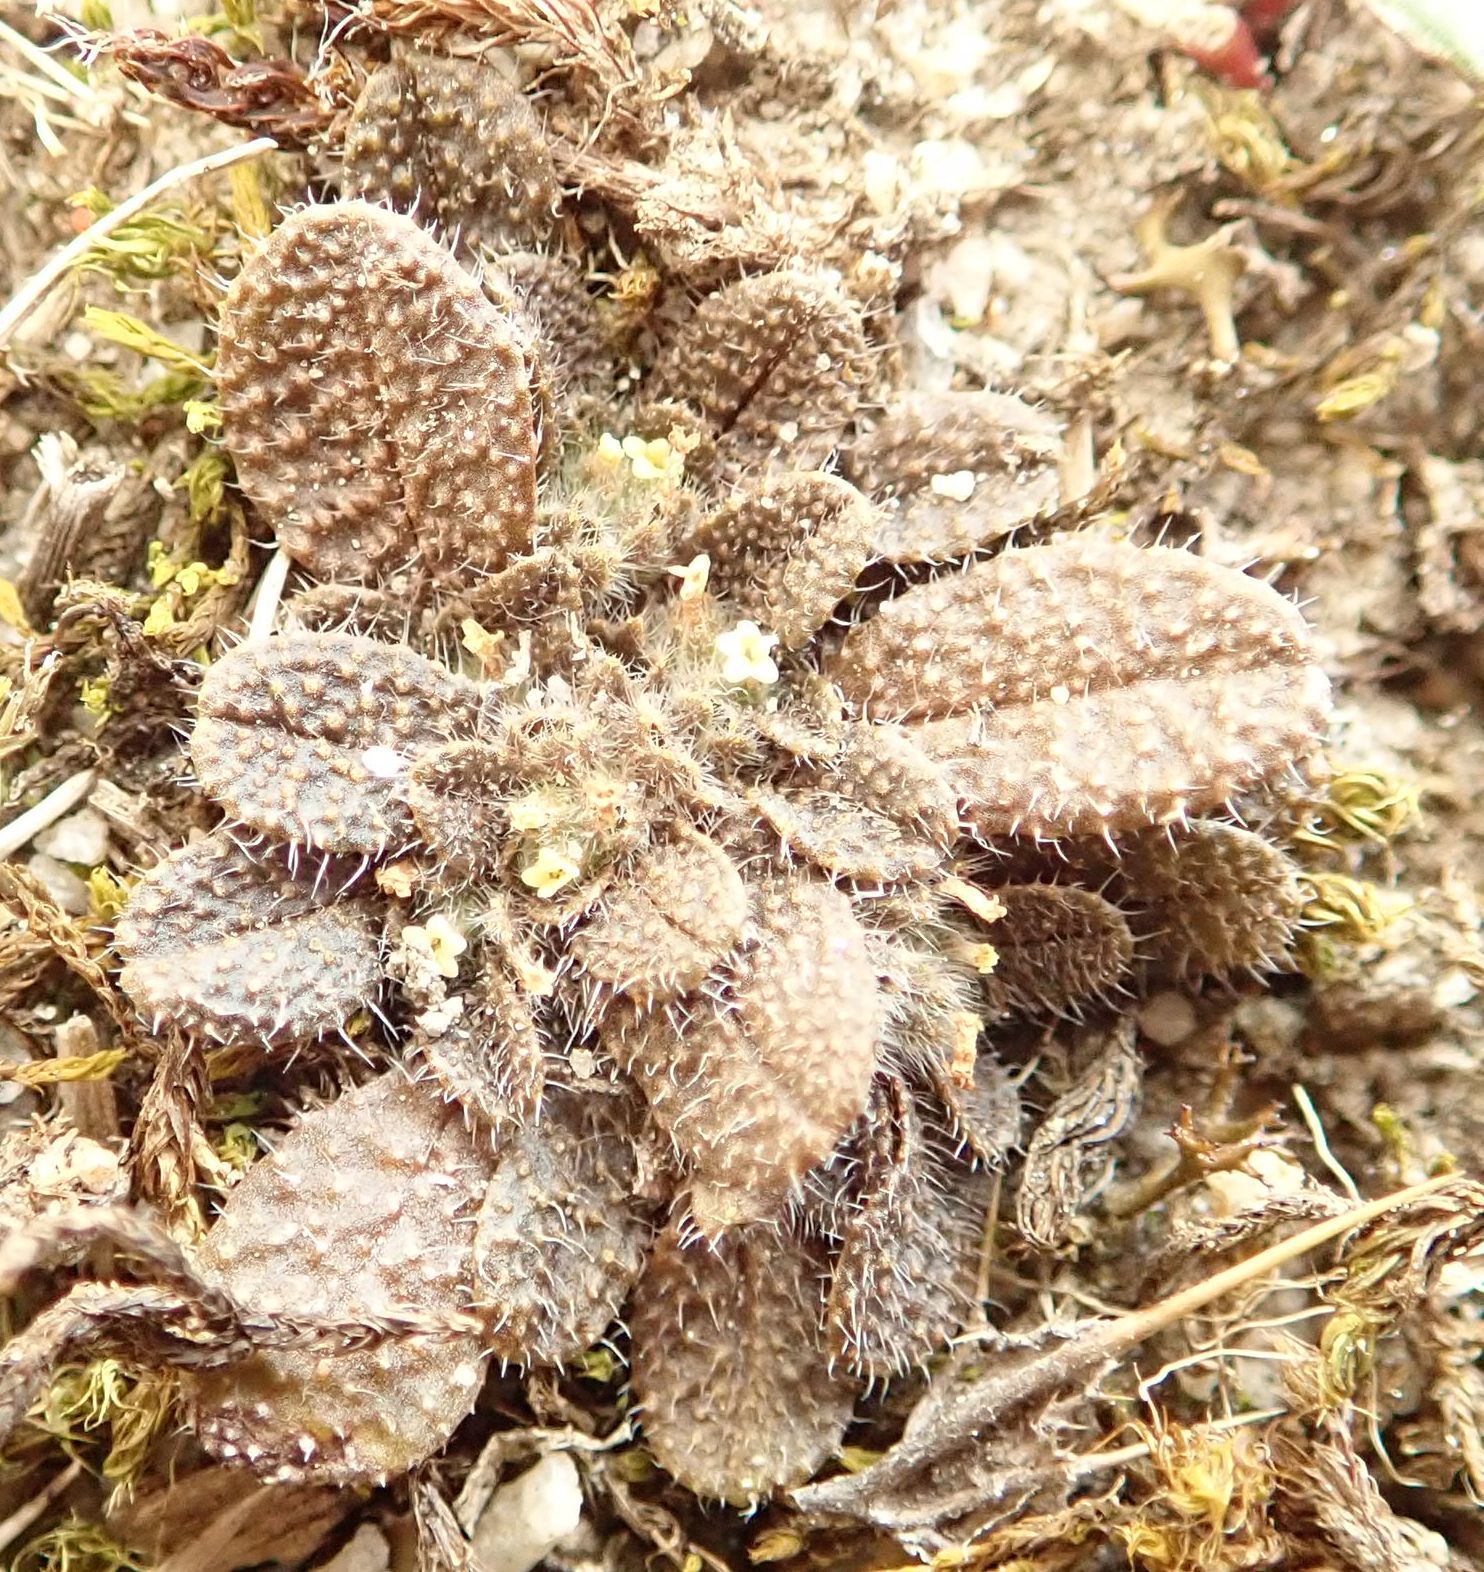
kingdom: Plantae
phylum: Tracheophyta
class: Magnoliopsida
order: Boraginales
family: Boraginaceae
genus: Myosotis
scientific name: Myosotis brevis
